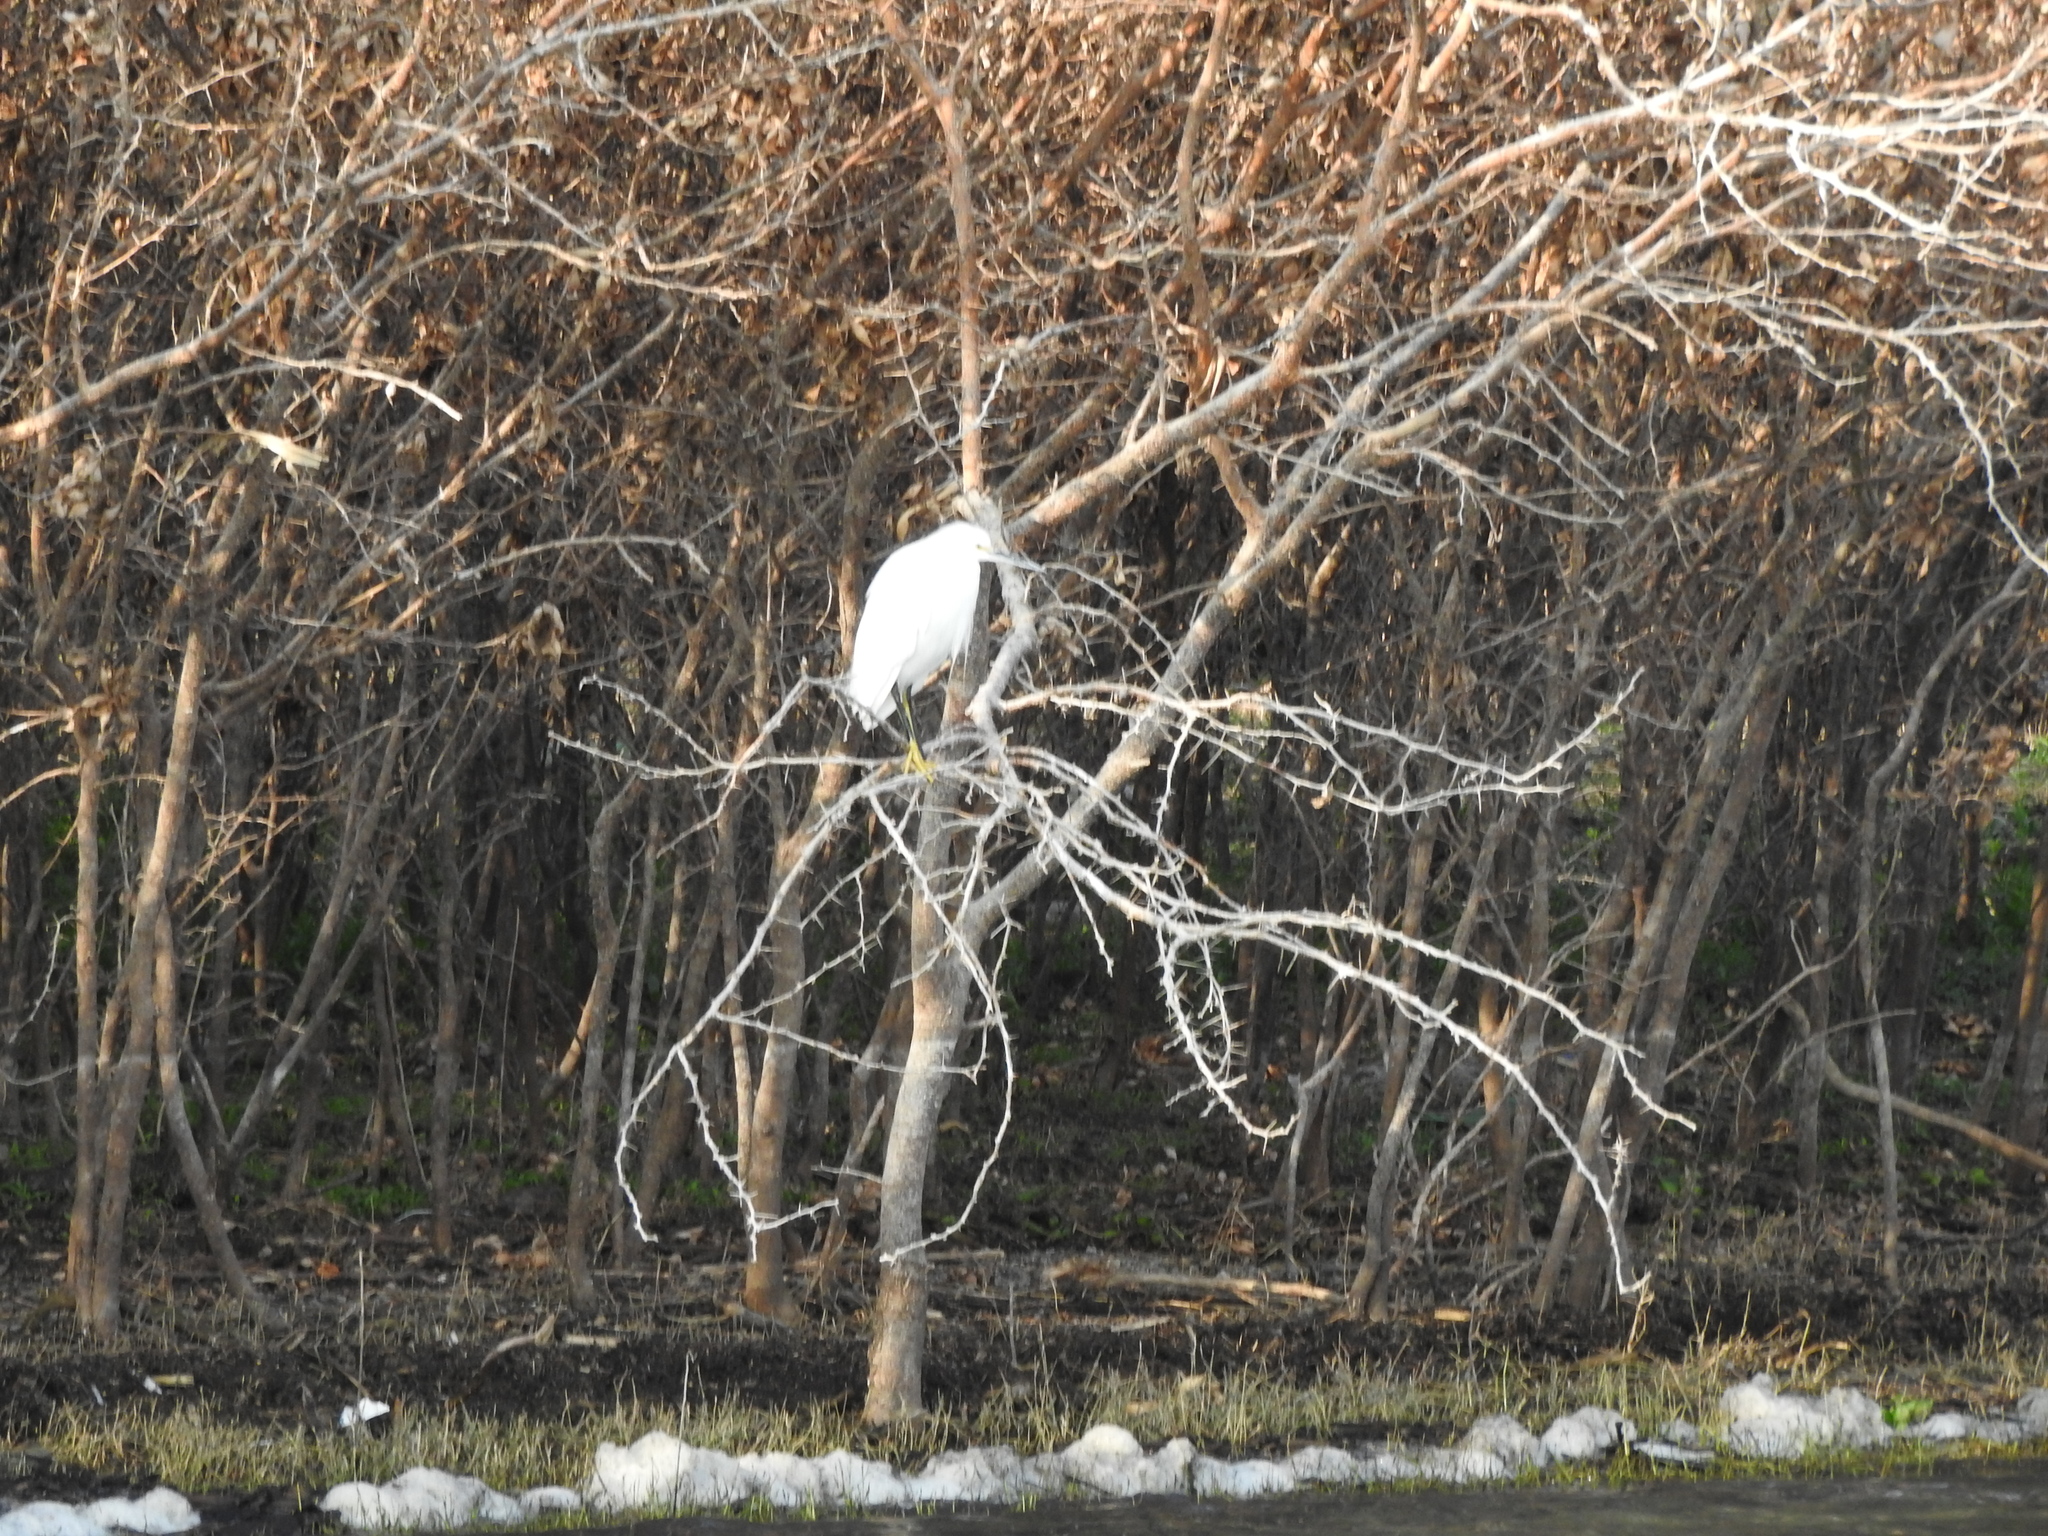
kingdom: Animalia
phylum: Chordata
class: Aves
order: Pelecaniformes
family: Ardeidae
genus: Egretta
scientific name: Egretta thula
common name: Snowy egret
